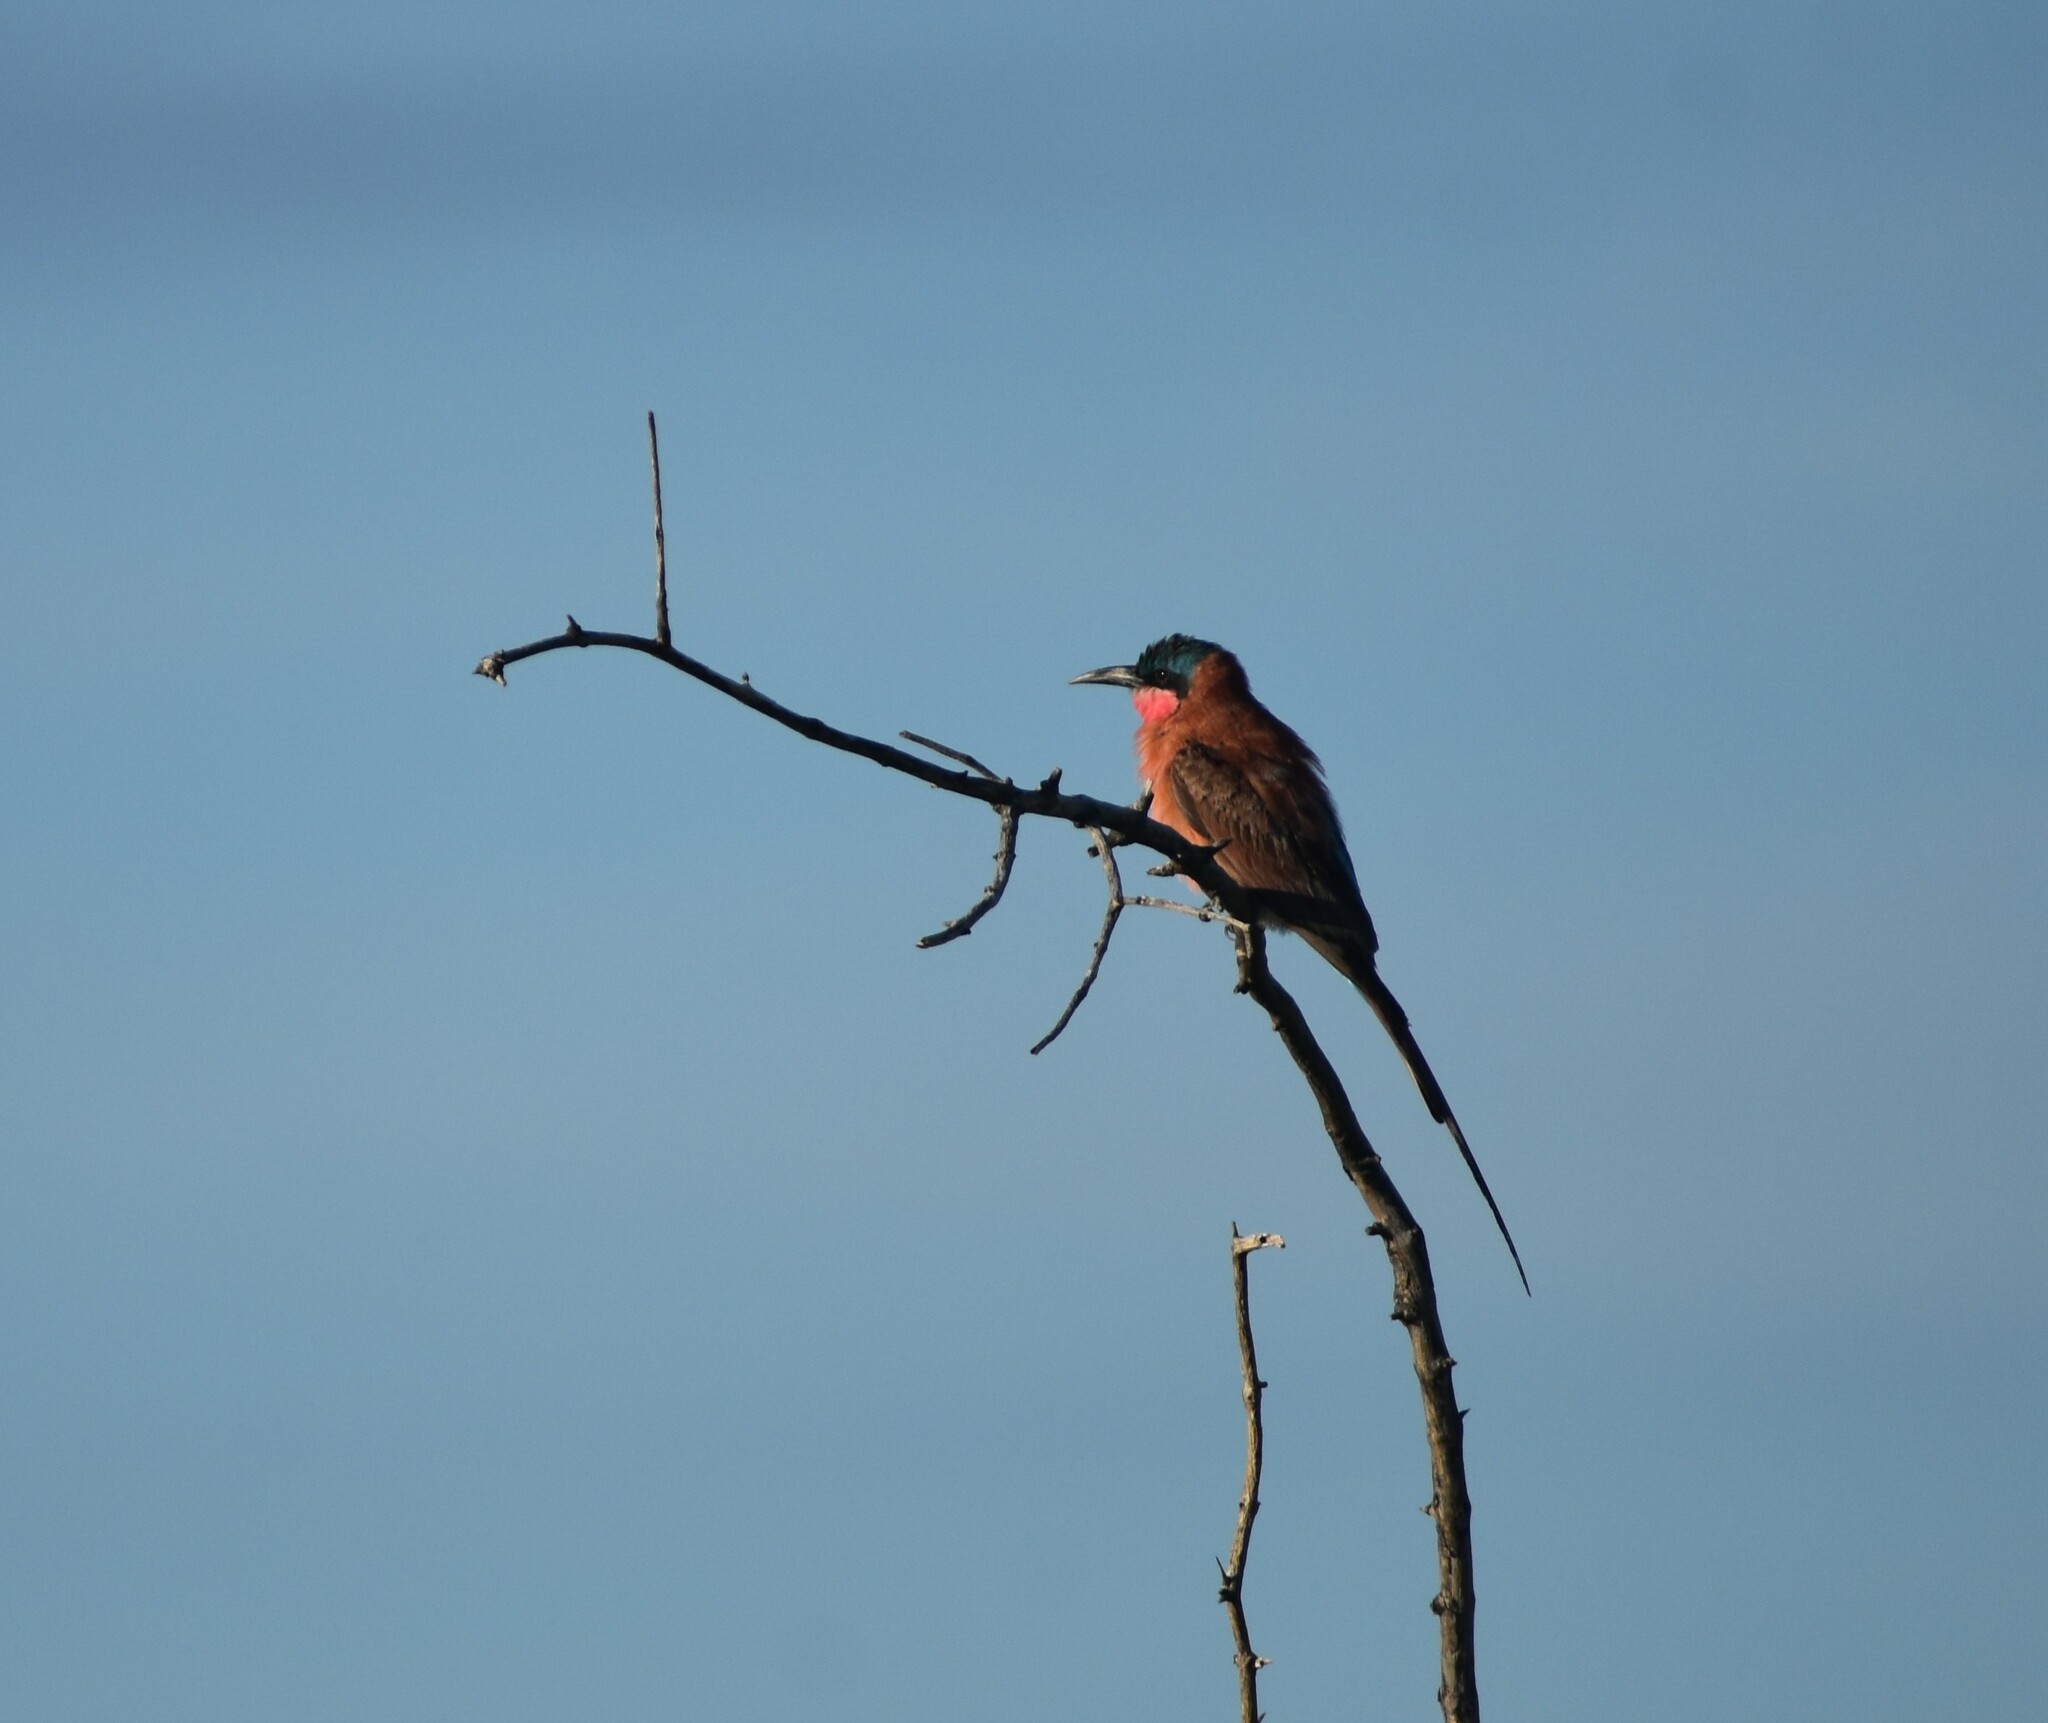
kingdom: Animalia
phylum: Chordata
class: Aves
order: Coraciiformes
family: Meropidae
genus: Merops
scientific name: Merops nubicoides
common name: Southern carmine bee-eater
